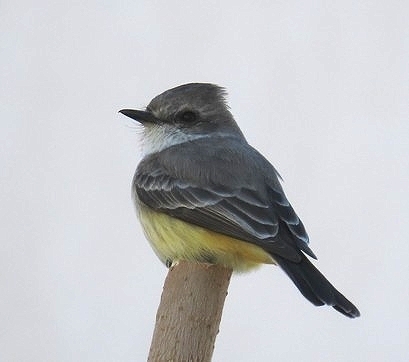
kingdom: Animalia
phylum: Chordata
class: Aves
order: Passeriformes
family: Tyrannidae
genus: Pyrocephalus
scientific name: Pyrocephalus rubinus
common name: Vermilion flycatcher
